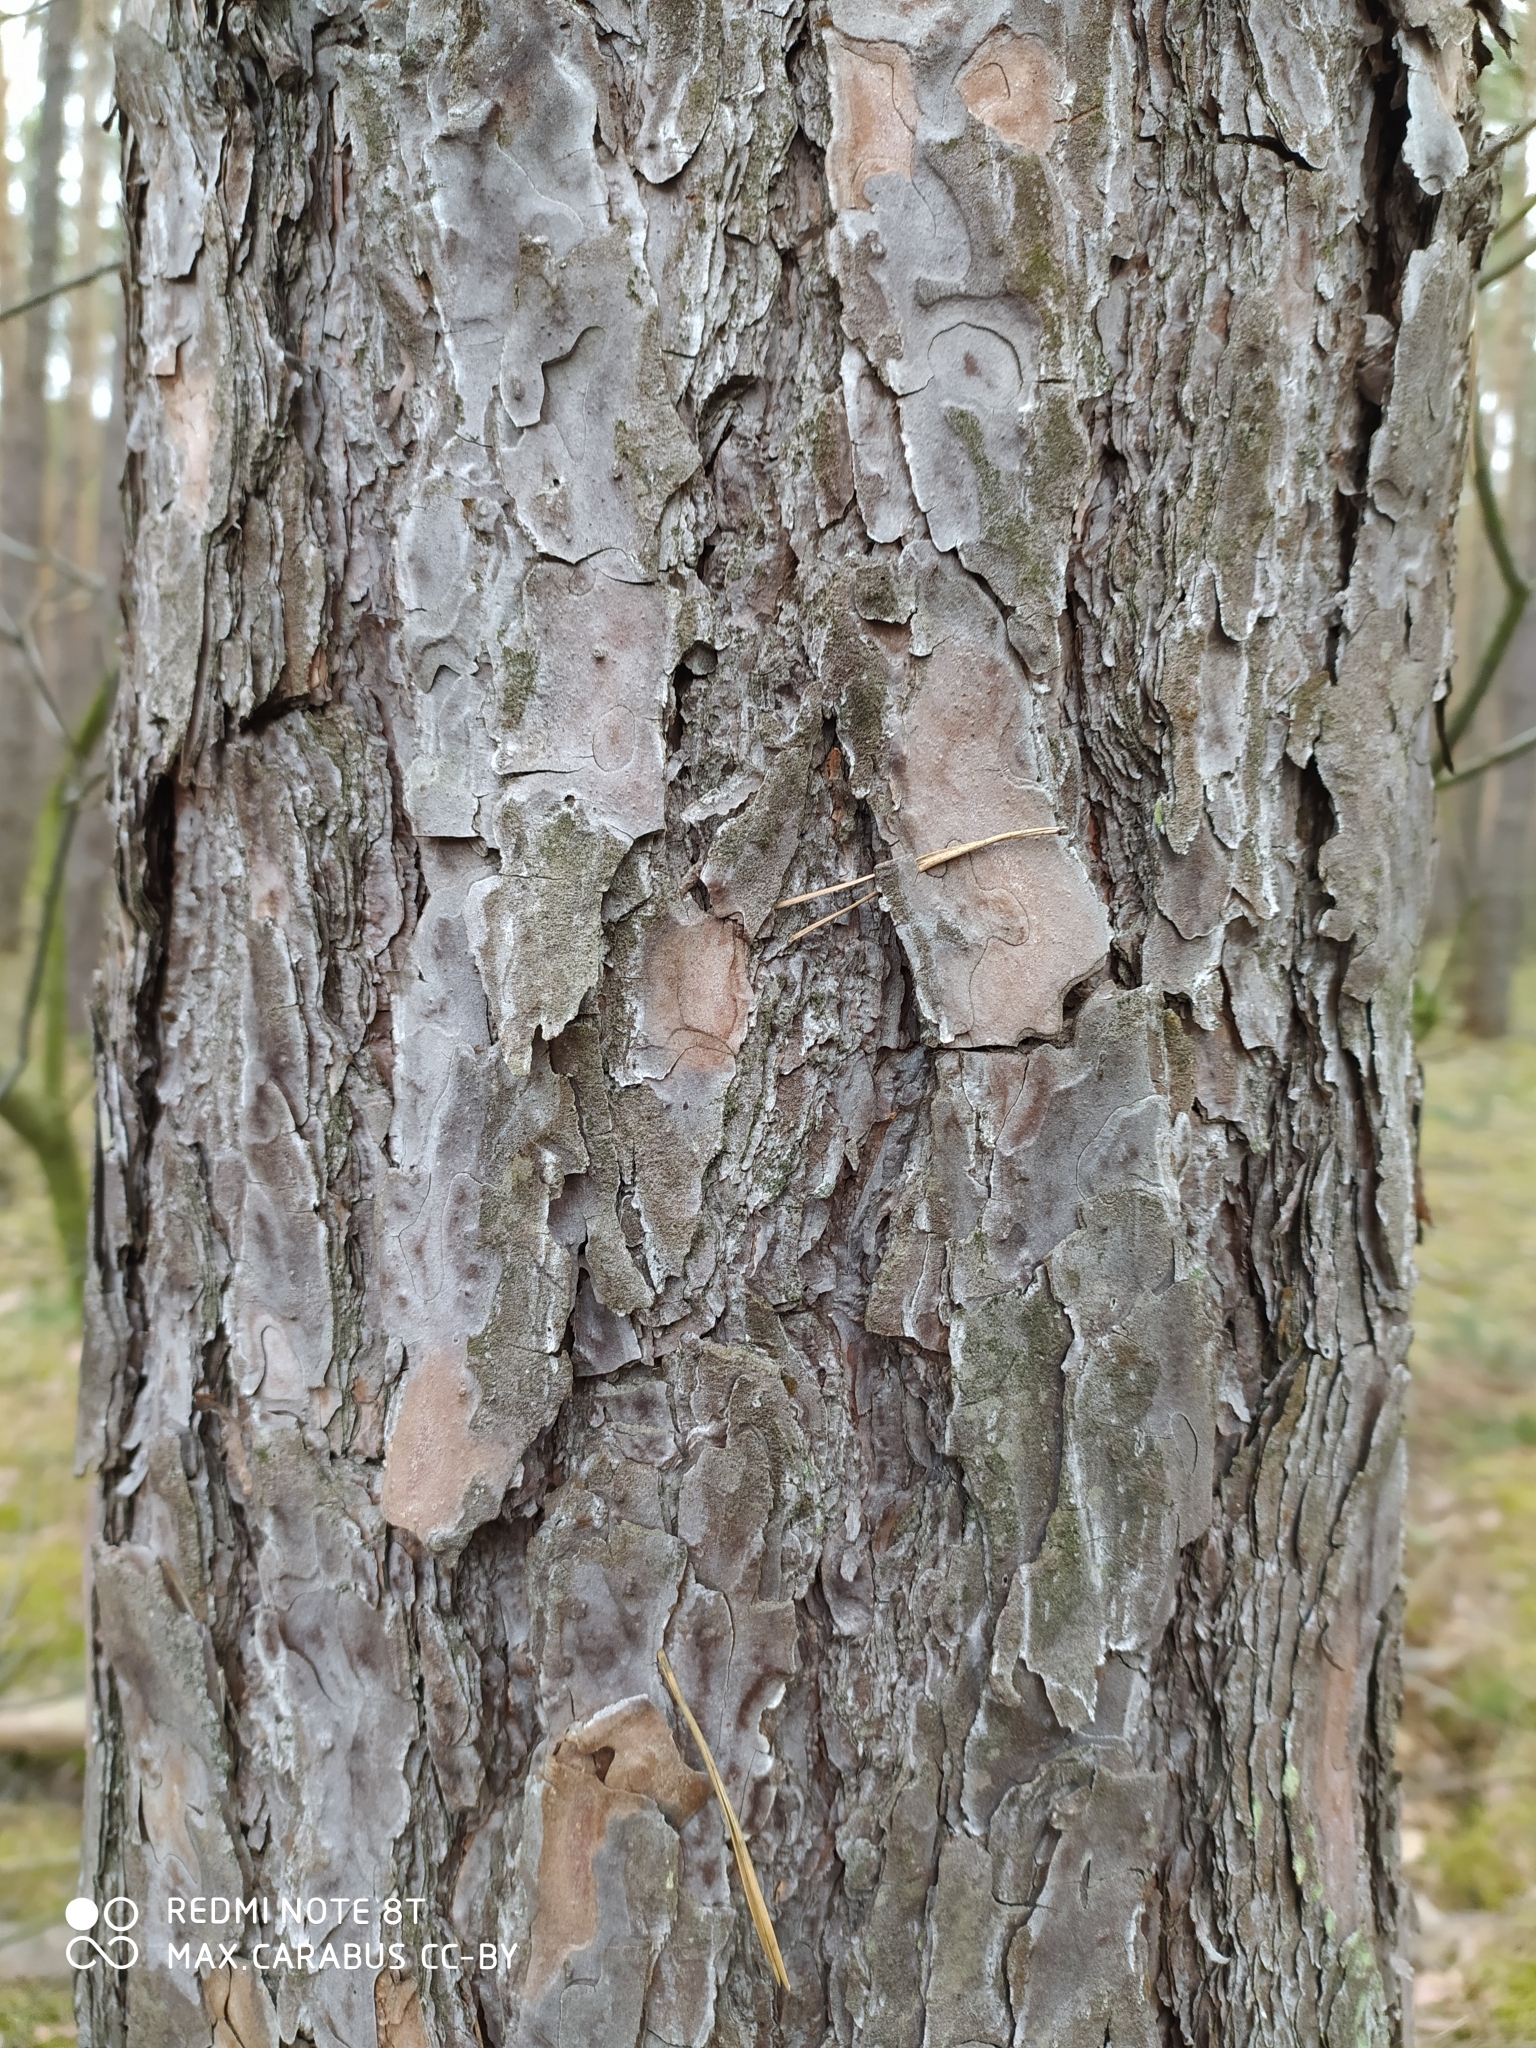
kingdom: Plantae
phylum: Tracheophyta
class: Pinopsida
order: Pinales
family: Pinaceae
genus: Pinus
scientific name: Pinus sylvestris
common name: Scots pine
